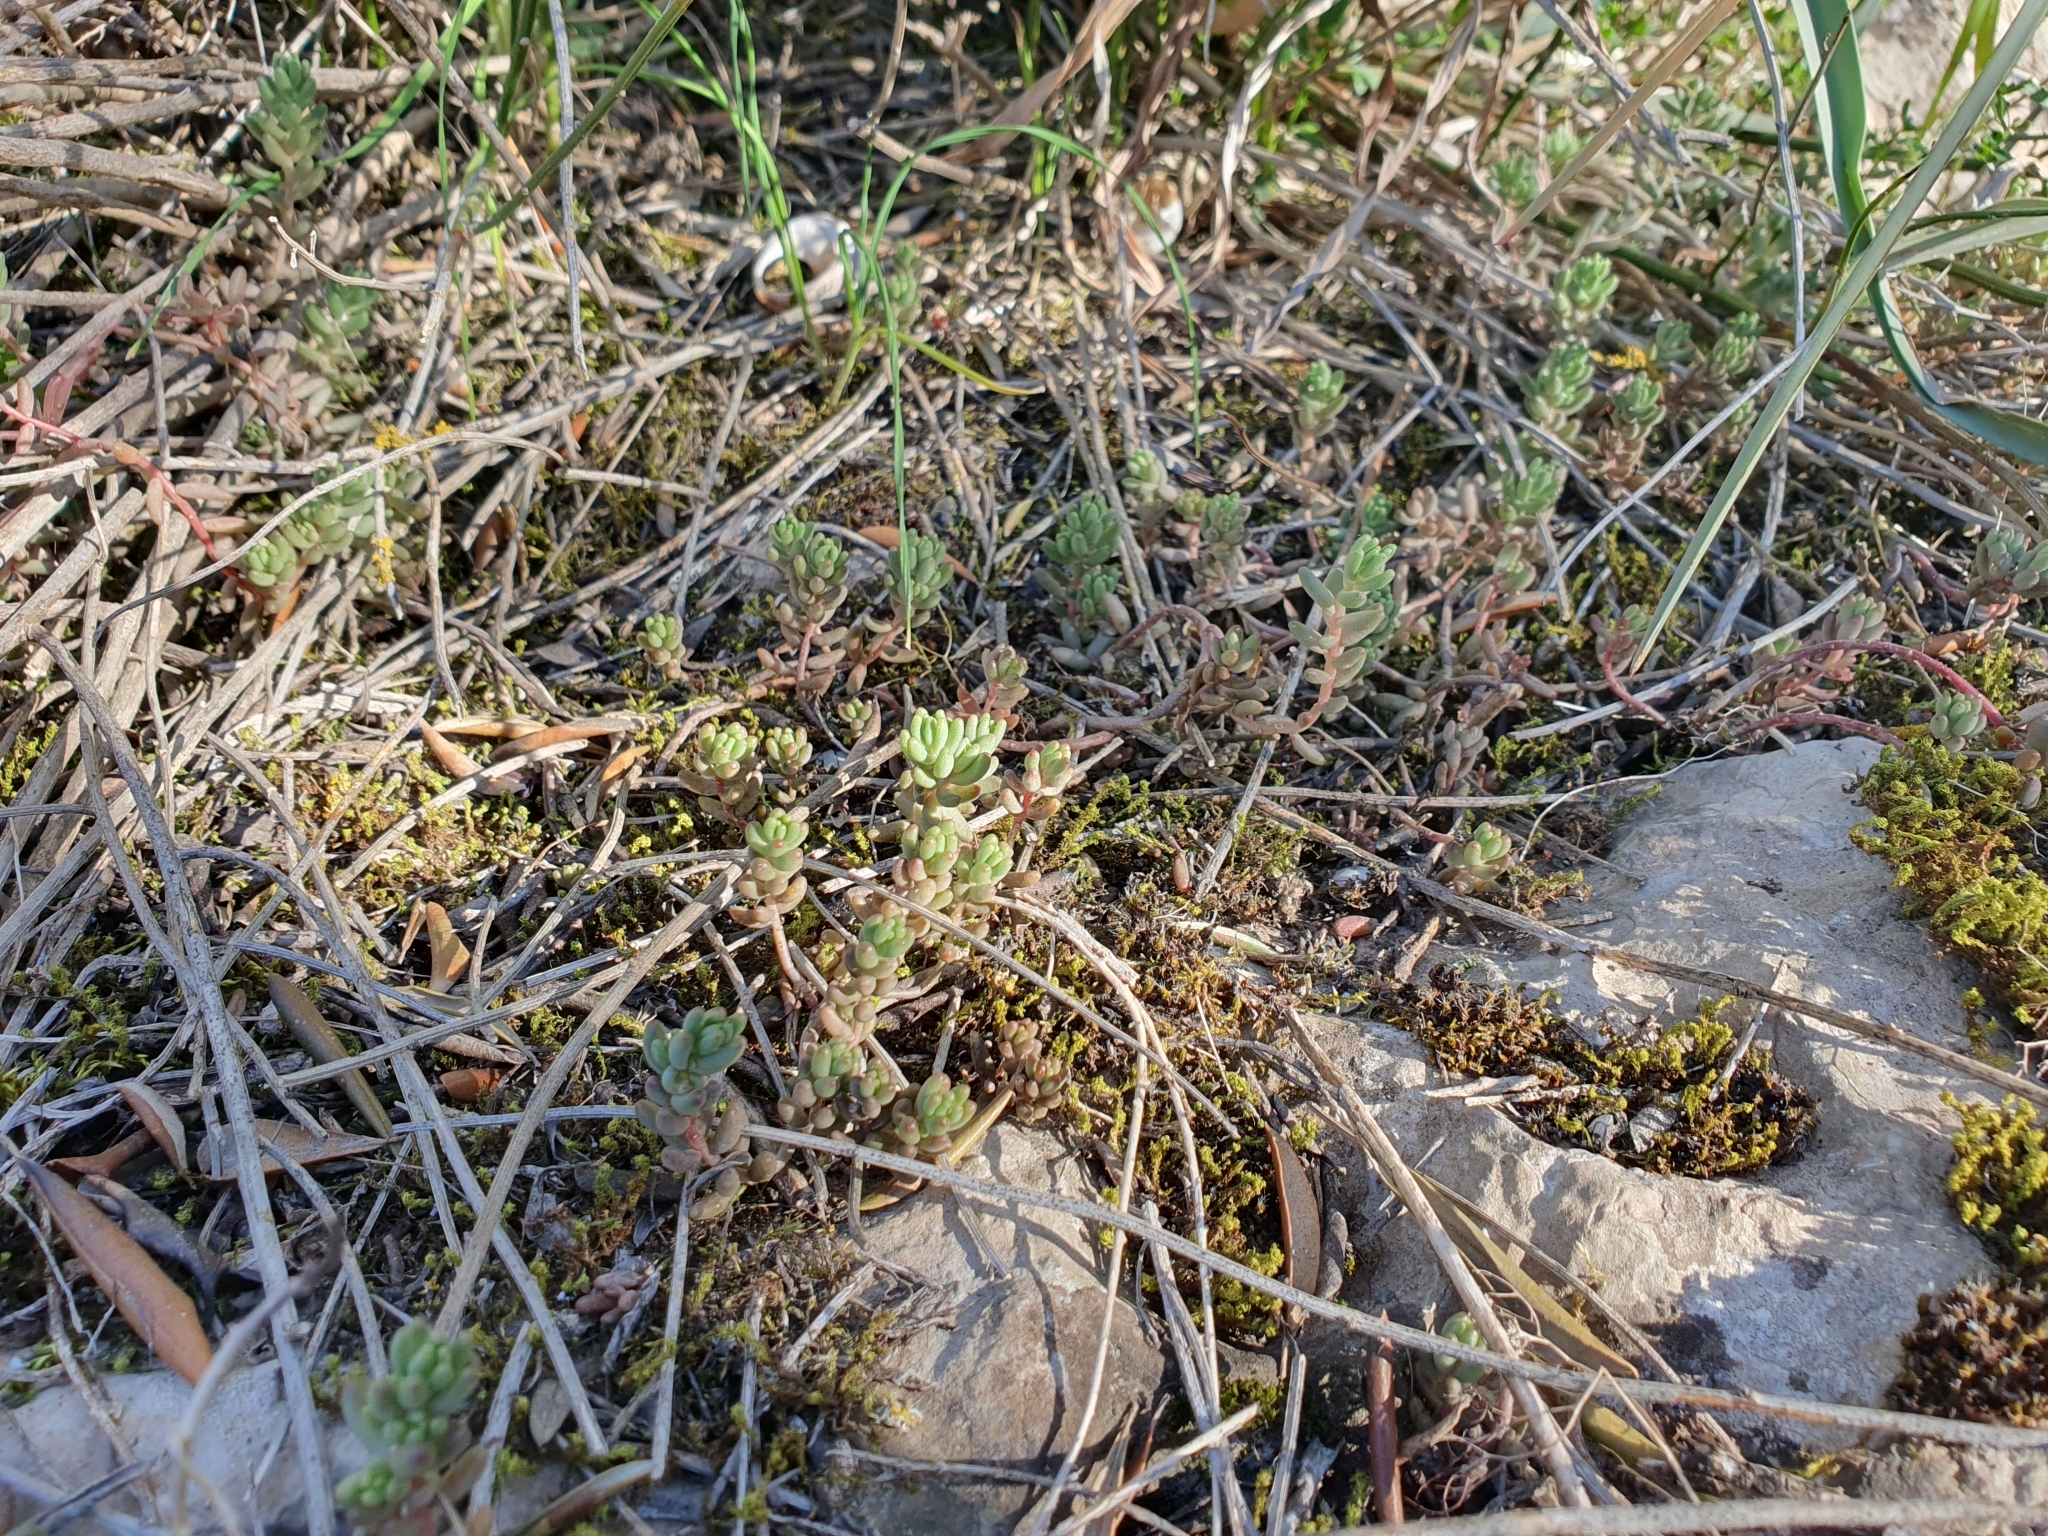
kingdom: Plantae
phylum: Tracheophyta
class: Magnoliopsida
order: Saxifragales
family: Crassulaceae
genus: Sedum
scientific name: Sedum album
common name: White stonecrop
